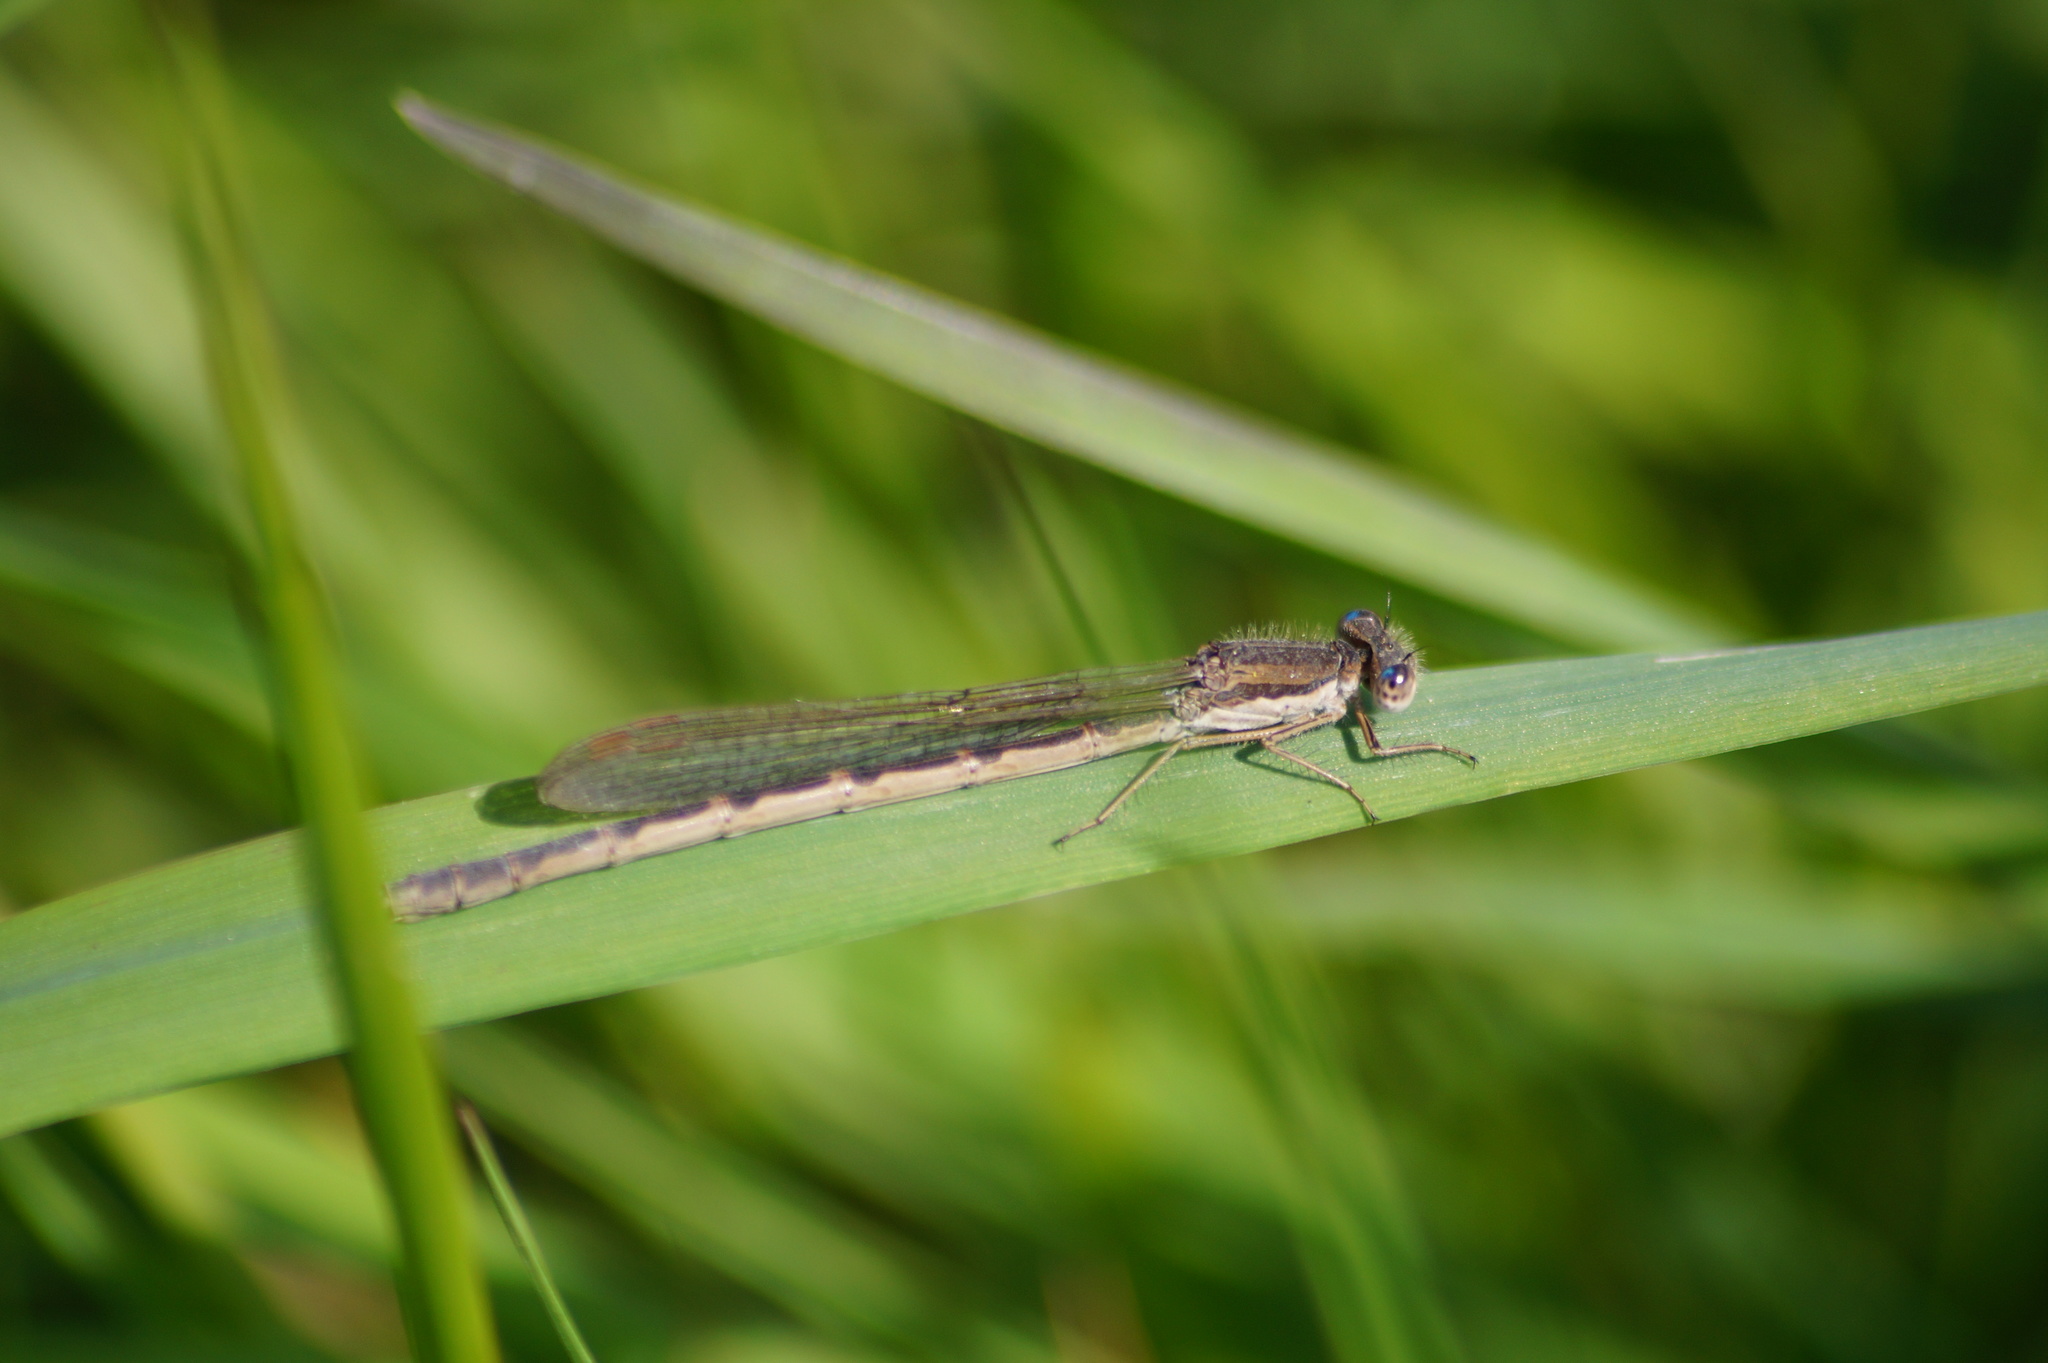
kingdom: Animalia
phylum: Arthropoda
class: Insecta
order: Odonata
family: Lestidae
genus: Sympecma
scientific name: Sympecma fusca
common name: Common winter damsel
